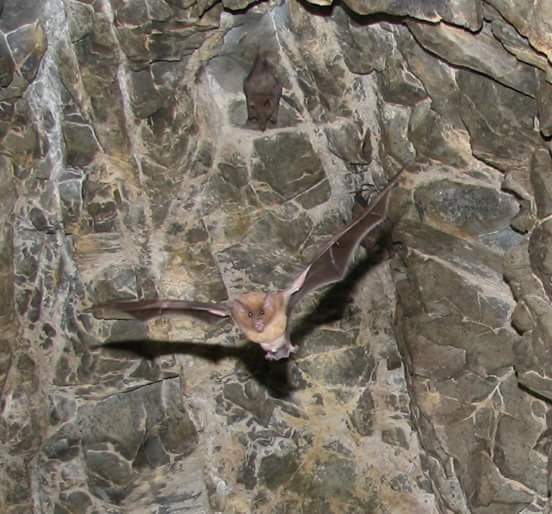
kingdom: Animalia
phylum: Chordata
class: Mammalia
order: Chiroptera
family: Phyllostomidae
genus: Choeronycteris
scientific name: Choeronycteris mexicana
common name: Mexican long-tongued bat
